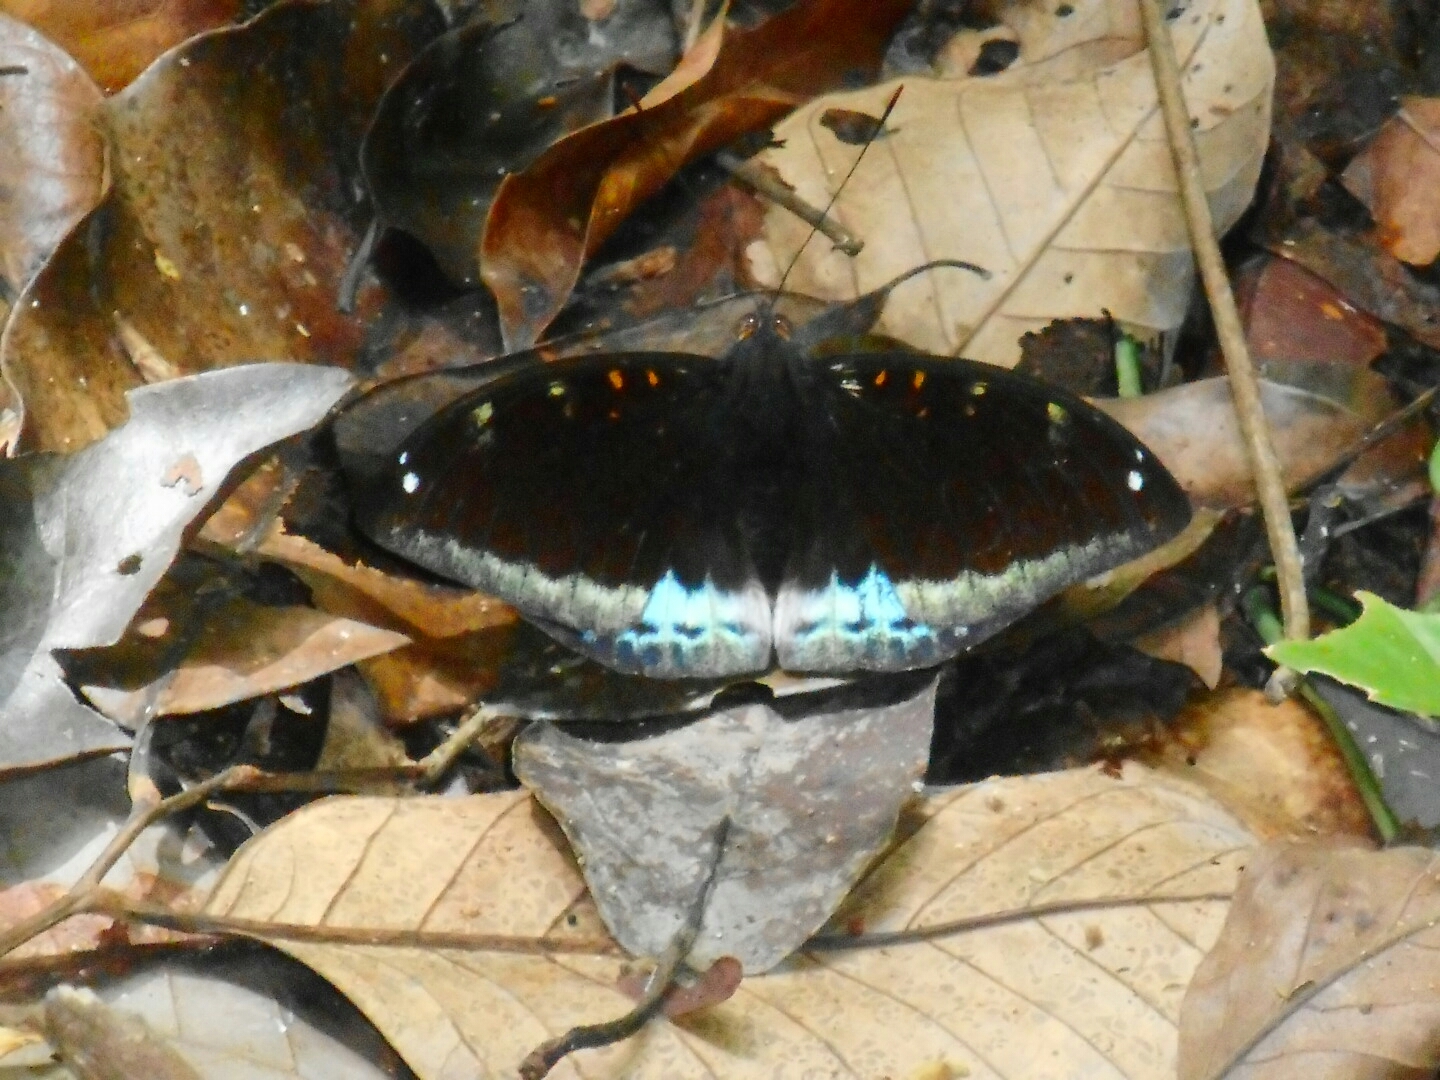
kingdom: Animalia
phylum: Arthropoda
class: Insecta
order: Lepidoptera
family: Nymphalidae
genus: Lexias
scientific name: Lexias pardalis
